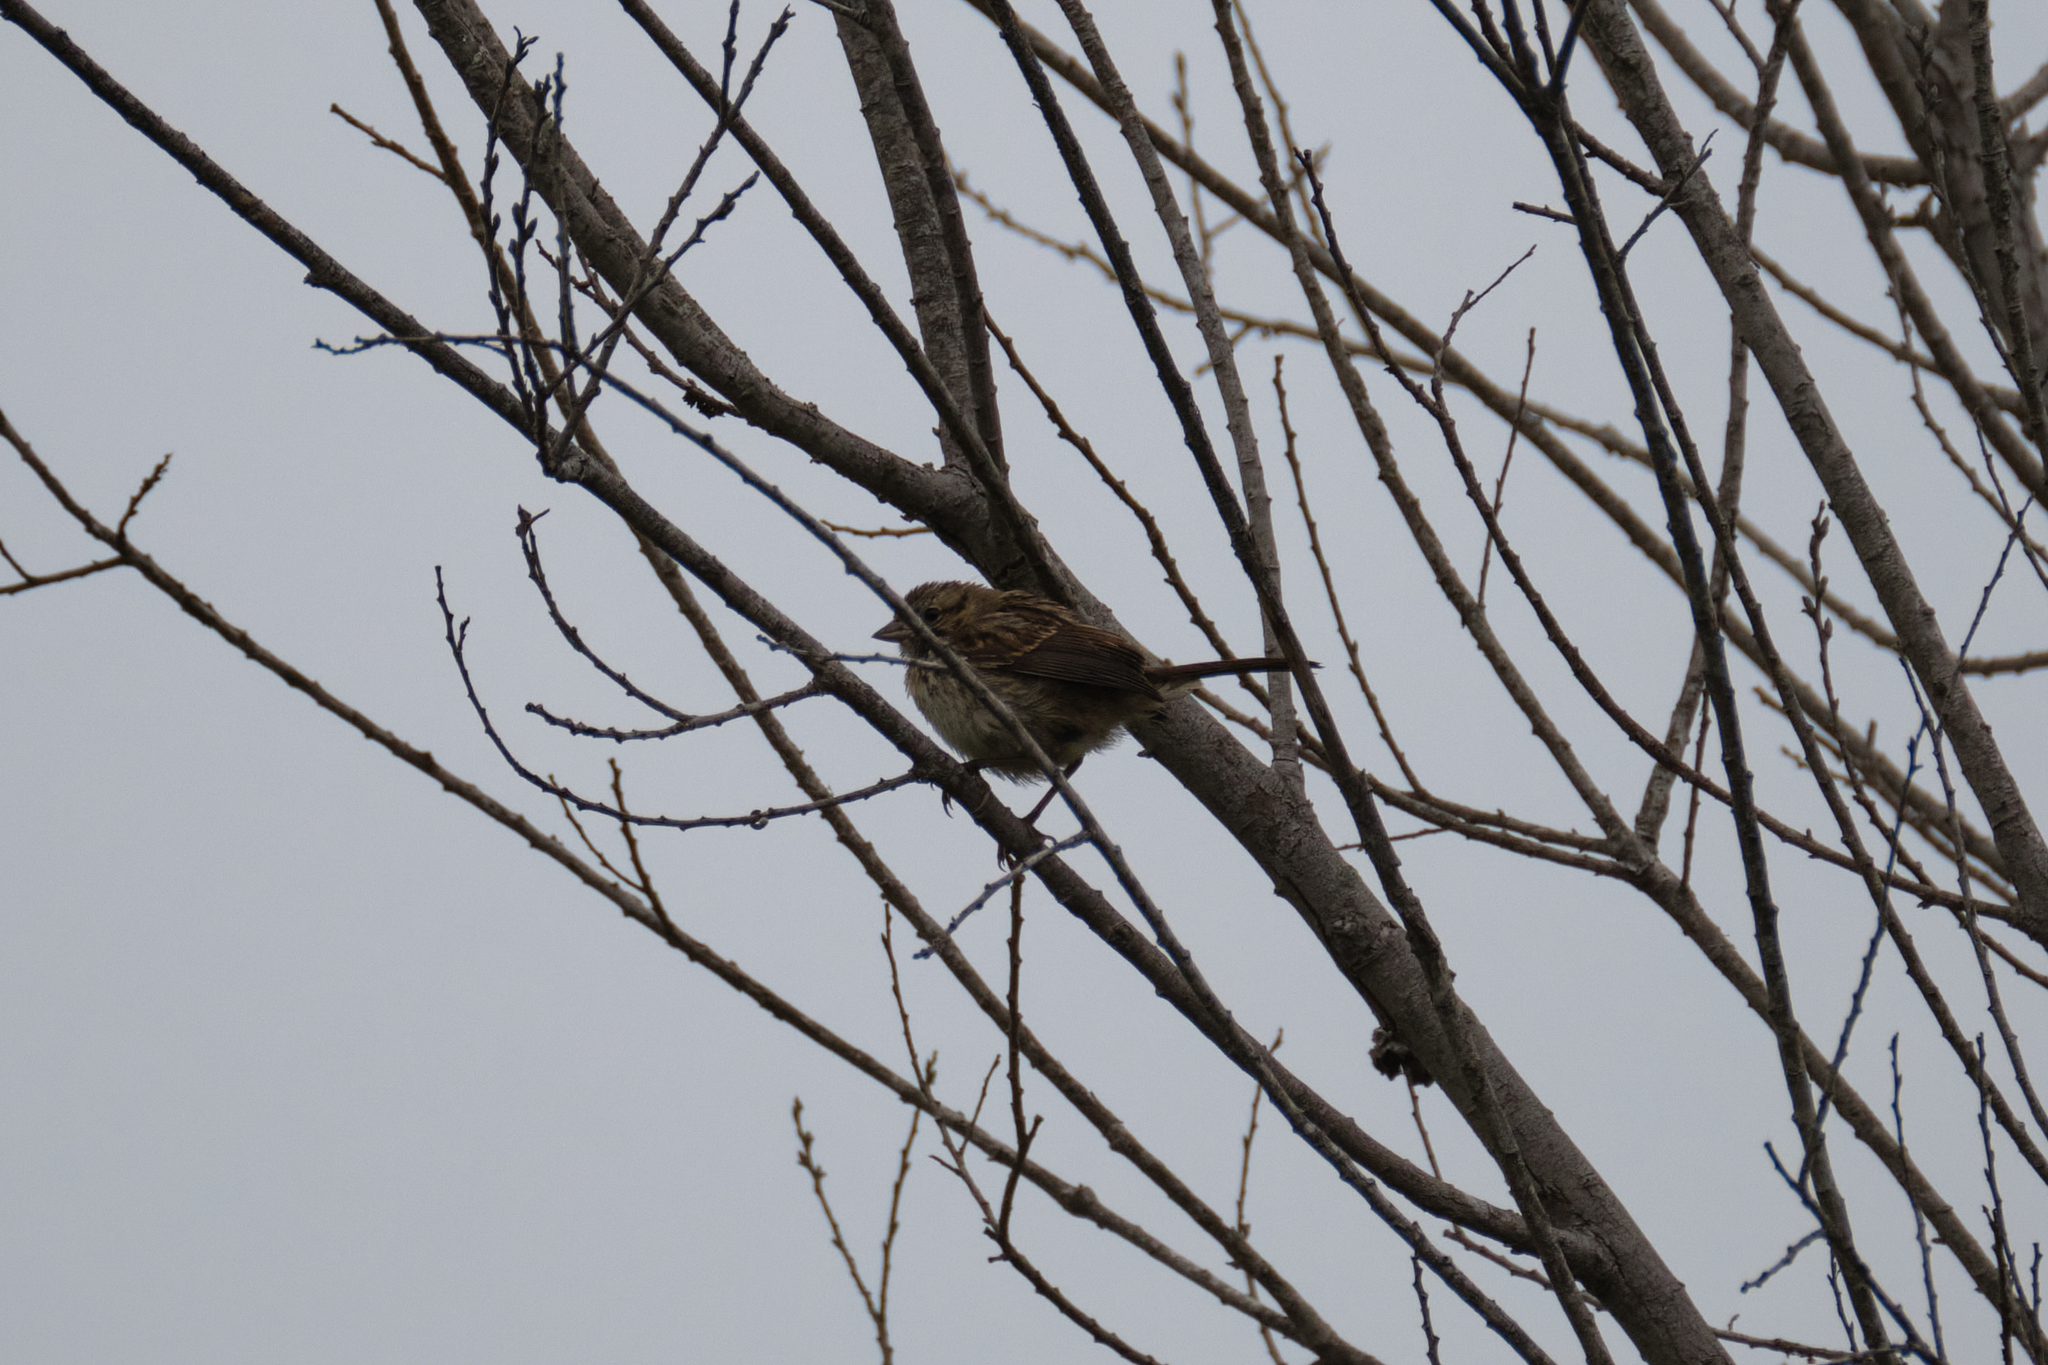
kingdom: Animalia
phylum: Chordata
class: Aves
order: Passeriformes
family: Passerellidae
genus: Melospiza
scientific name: Melospiza melodia
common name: Song sparrow
